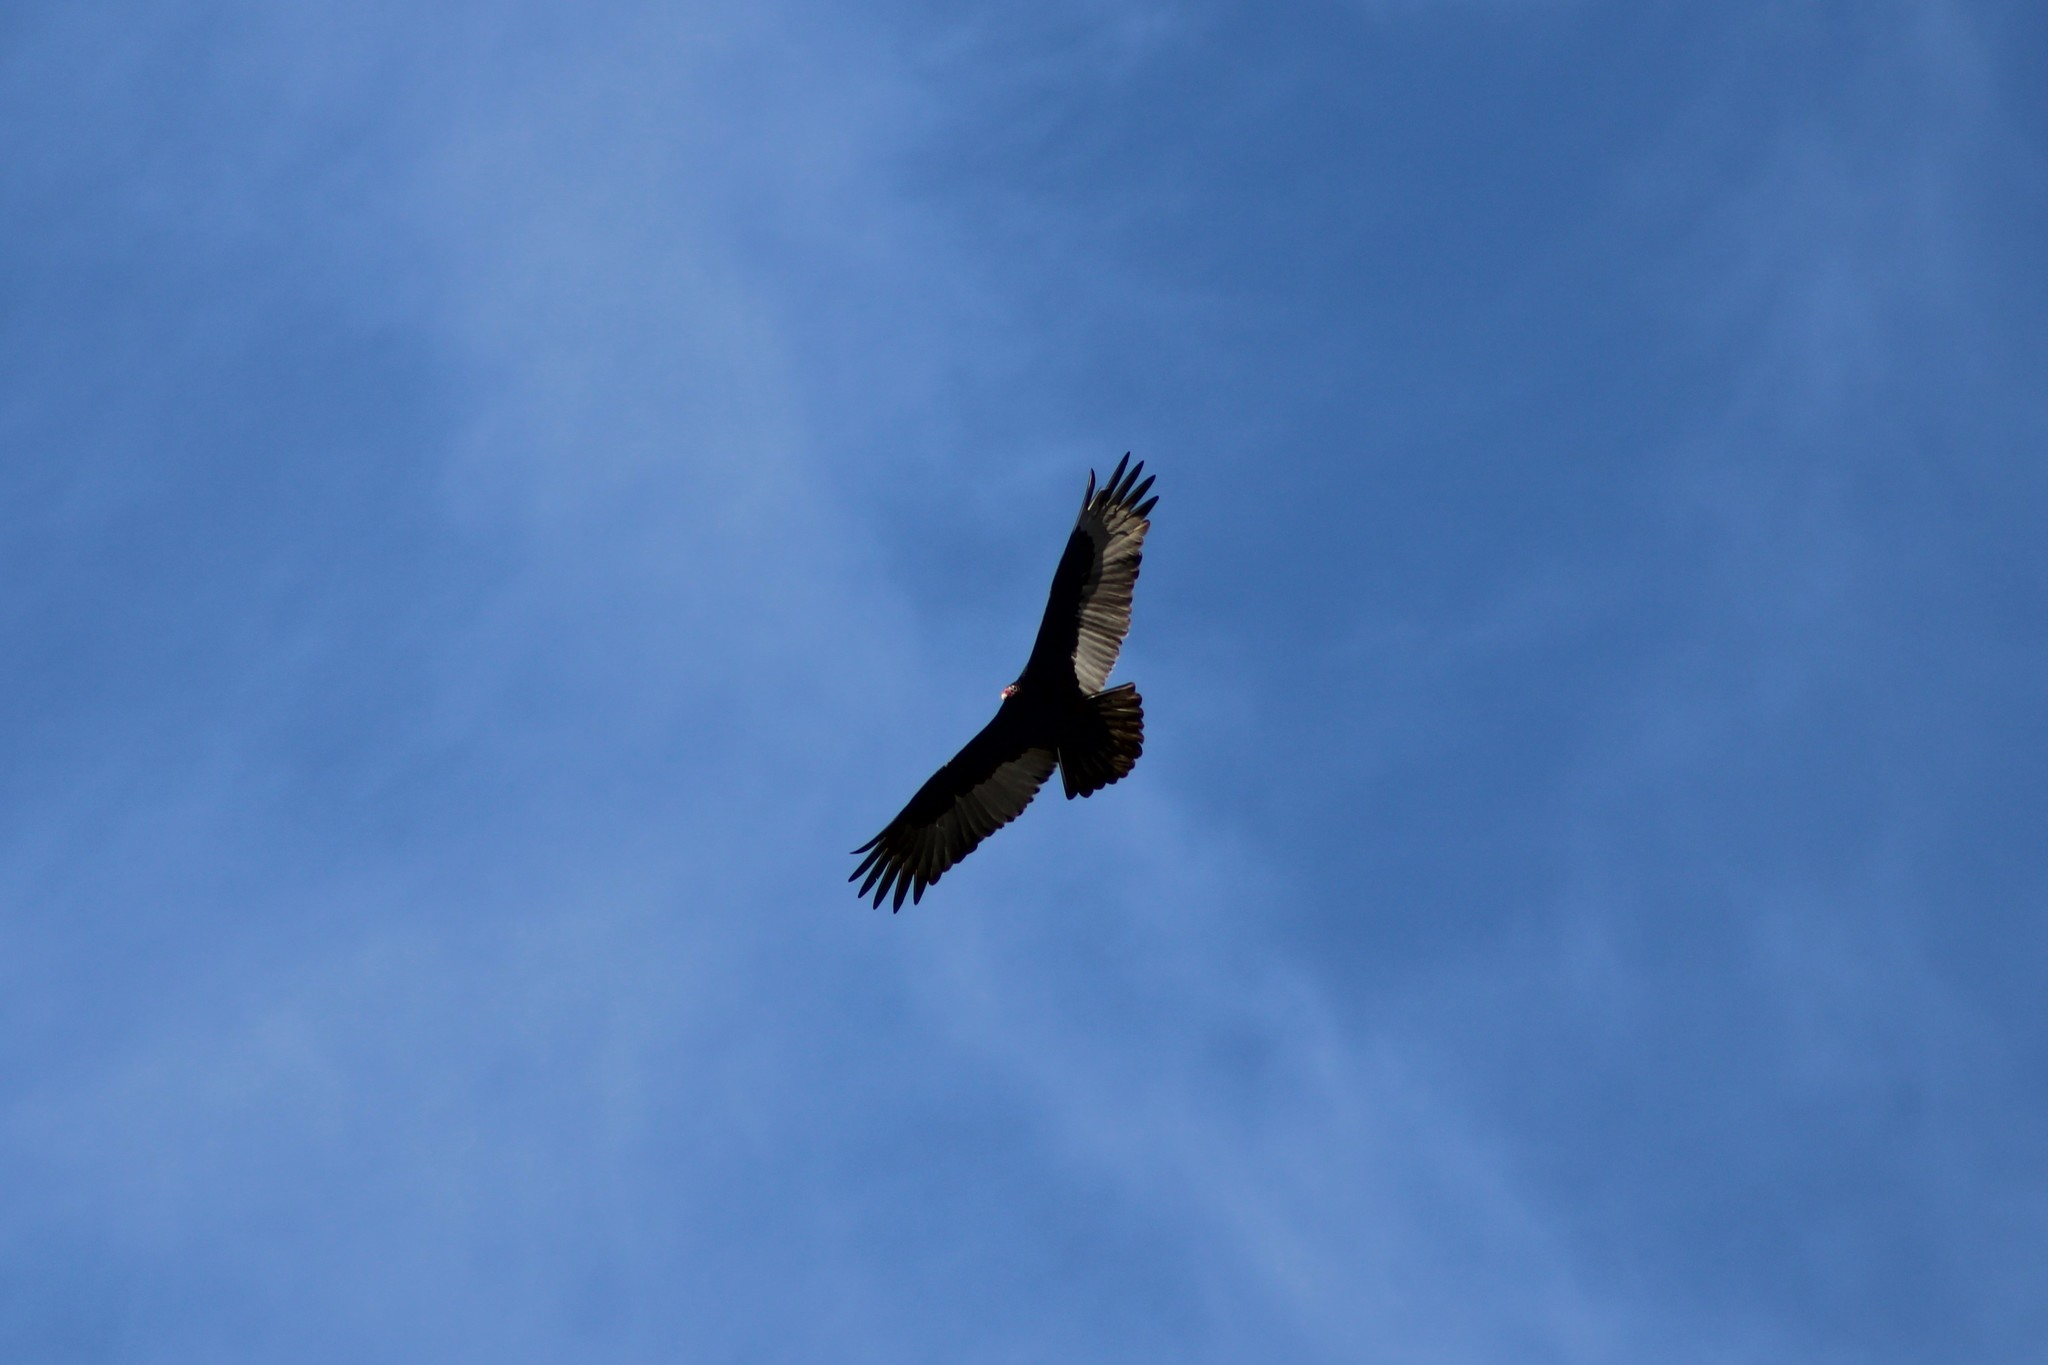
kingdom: Animalia
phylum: Chordata
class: Aves
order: Accipitriformes
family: Cathartidae
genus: Cathartes
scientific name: Cathartes aura
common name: Turkey vulture
